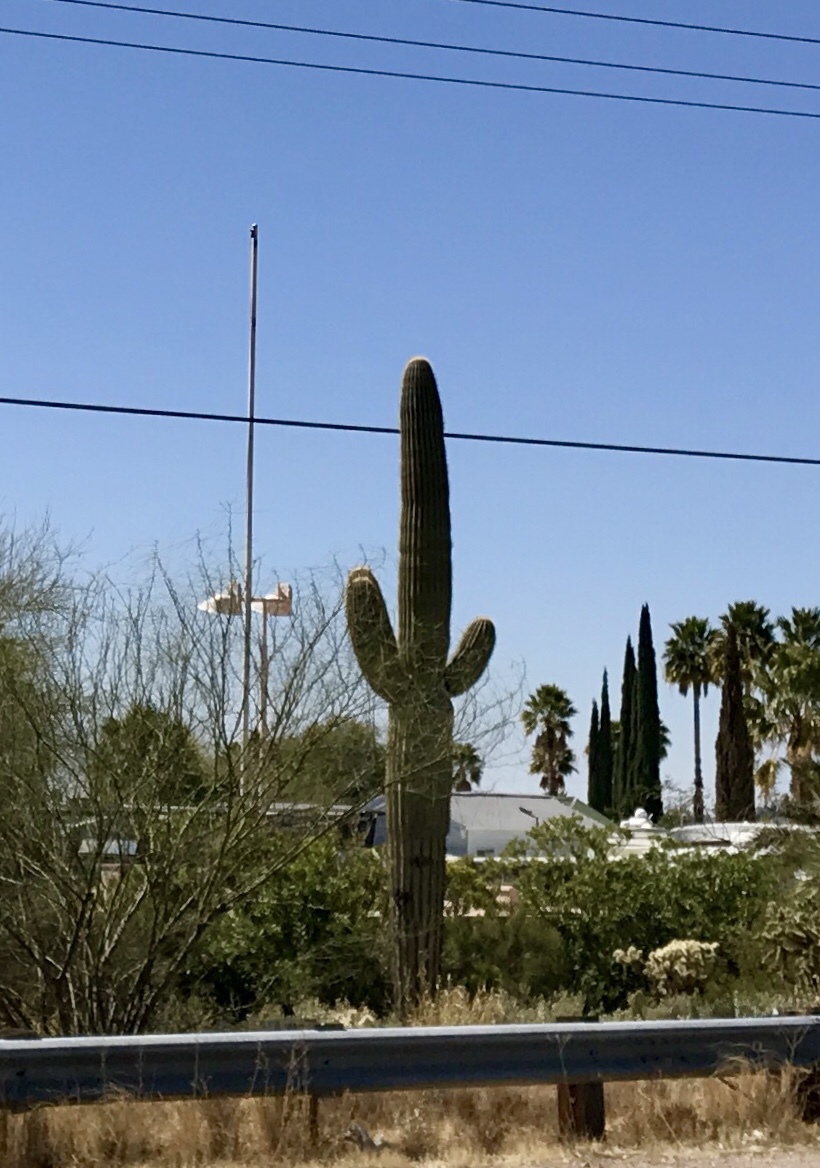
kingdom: Plantae
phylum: Tracheophyta
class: Magnoliopsida
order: Caryophyllales
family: Cactaceae
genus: Carnegiea
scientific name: Carnegiea gigantea
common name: Saguaro
